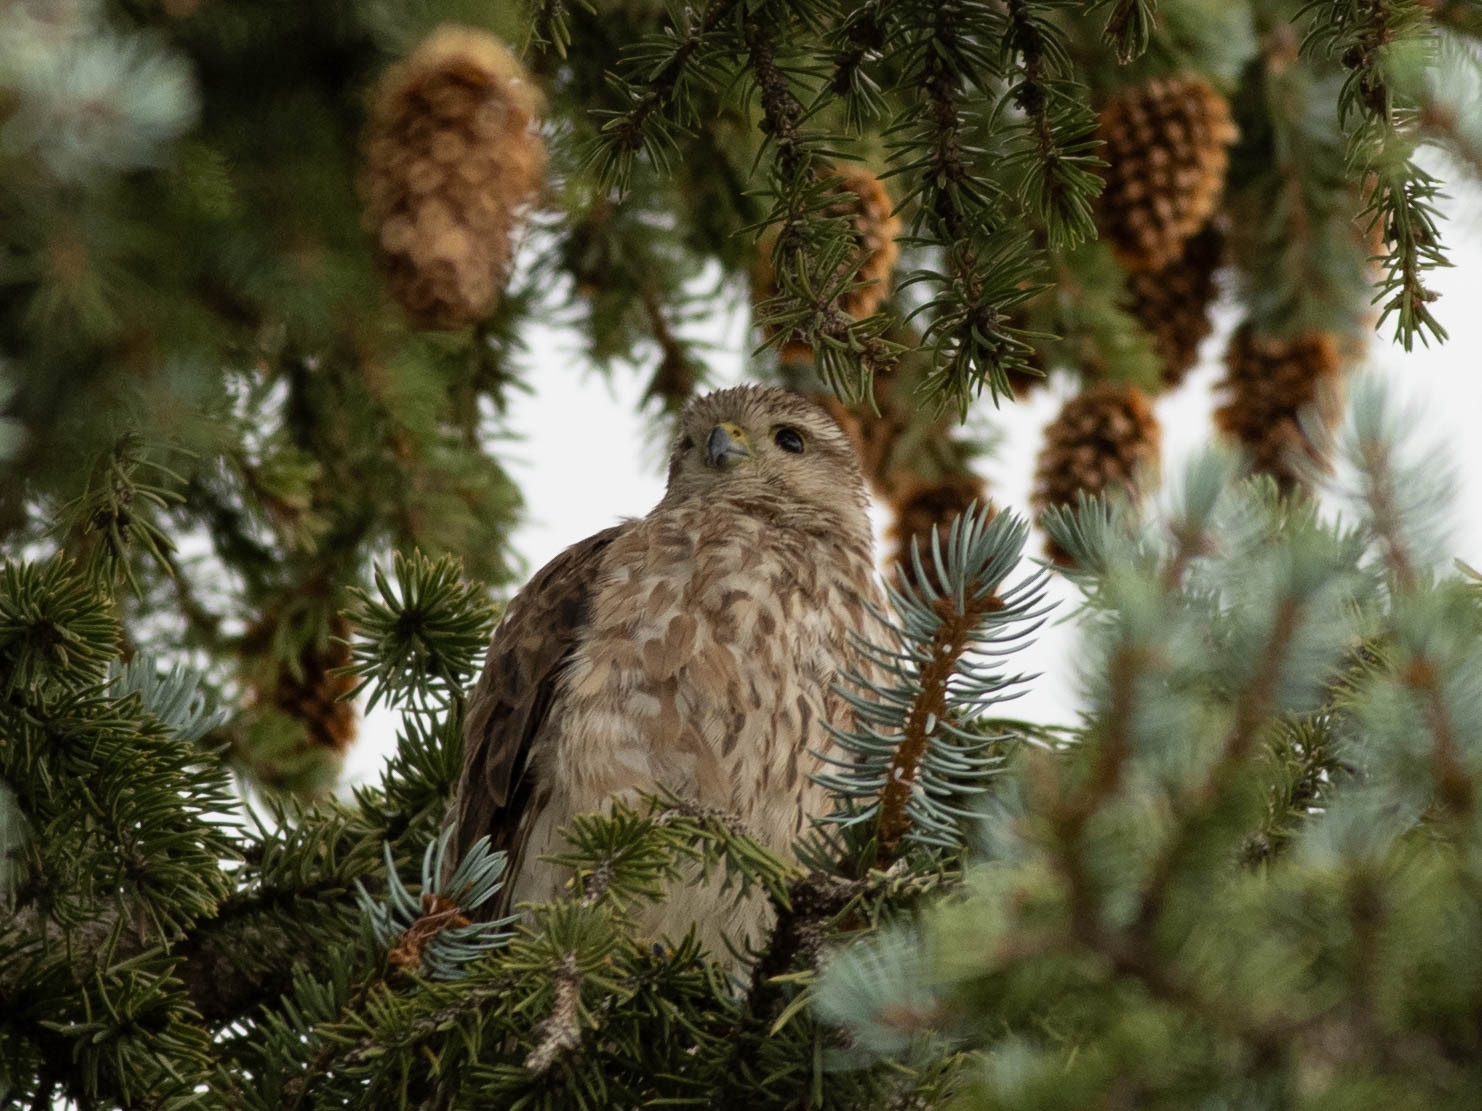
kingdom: Animalia
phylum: Chordata
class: Aves
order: Falconiformes
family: Falconidae
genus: Falco
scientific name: Falco columbarius
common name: Merlin
